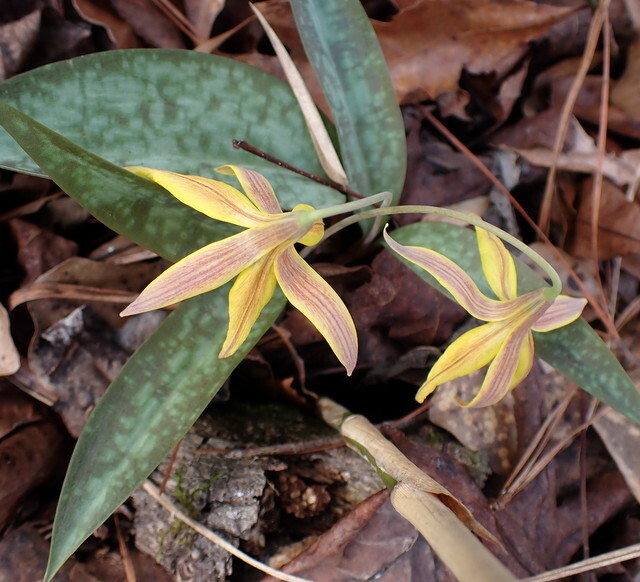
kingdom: Plantae
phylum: Tracheophyta
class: Liliopsida
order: Liliales
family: Liliaceae
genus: Erythronium
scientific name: Erythronium umbilicatum
